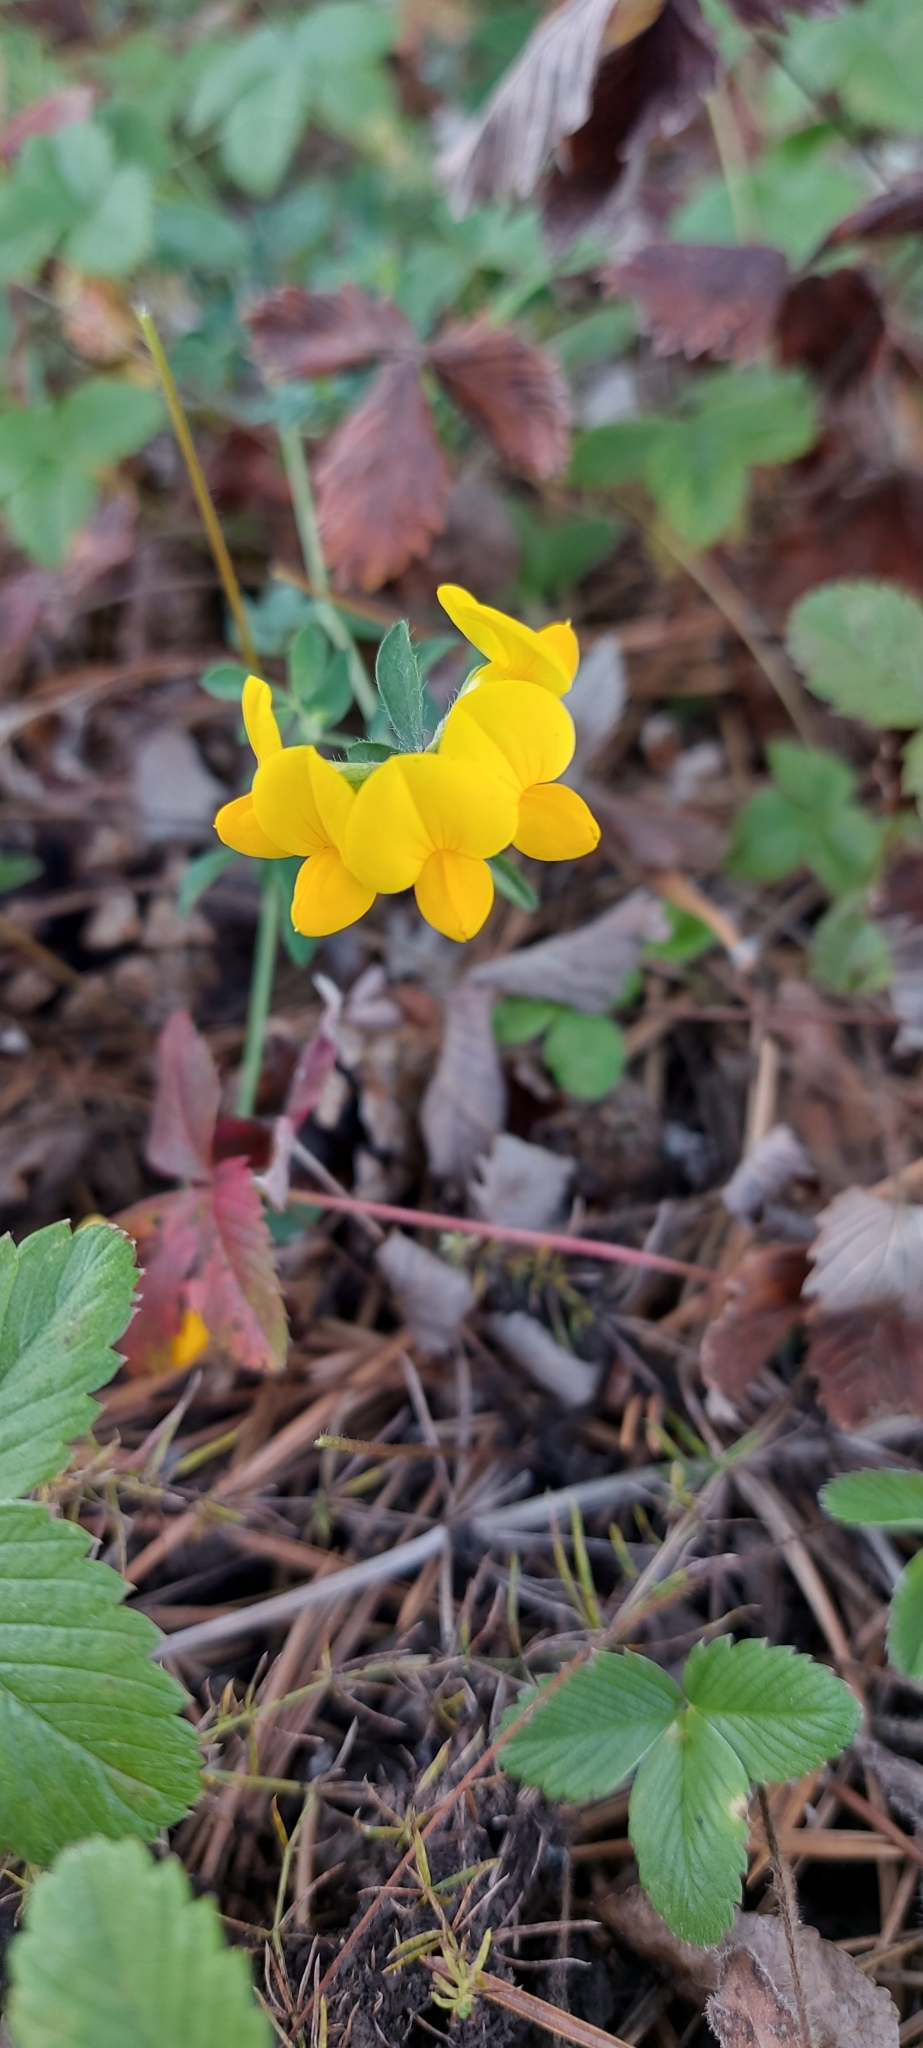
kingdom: Plantae
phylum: Tracheophyta
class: Magnoliopsida
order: Fabales
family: Fabaceae
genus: Lotus
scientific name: Lotus corniculatus
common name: Common bird's-foot-trefoil
